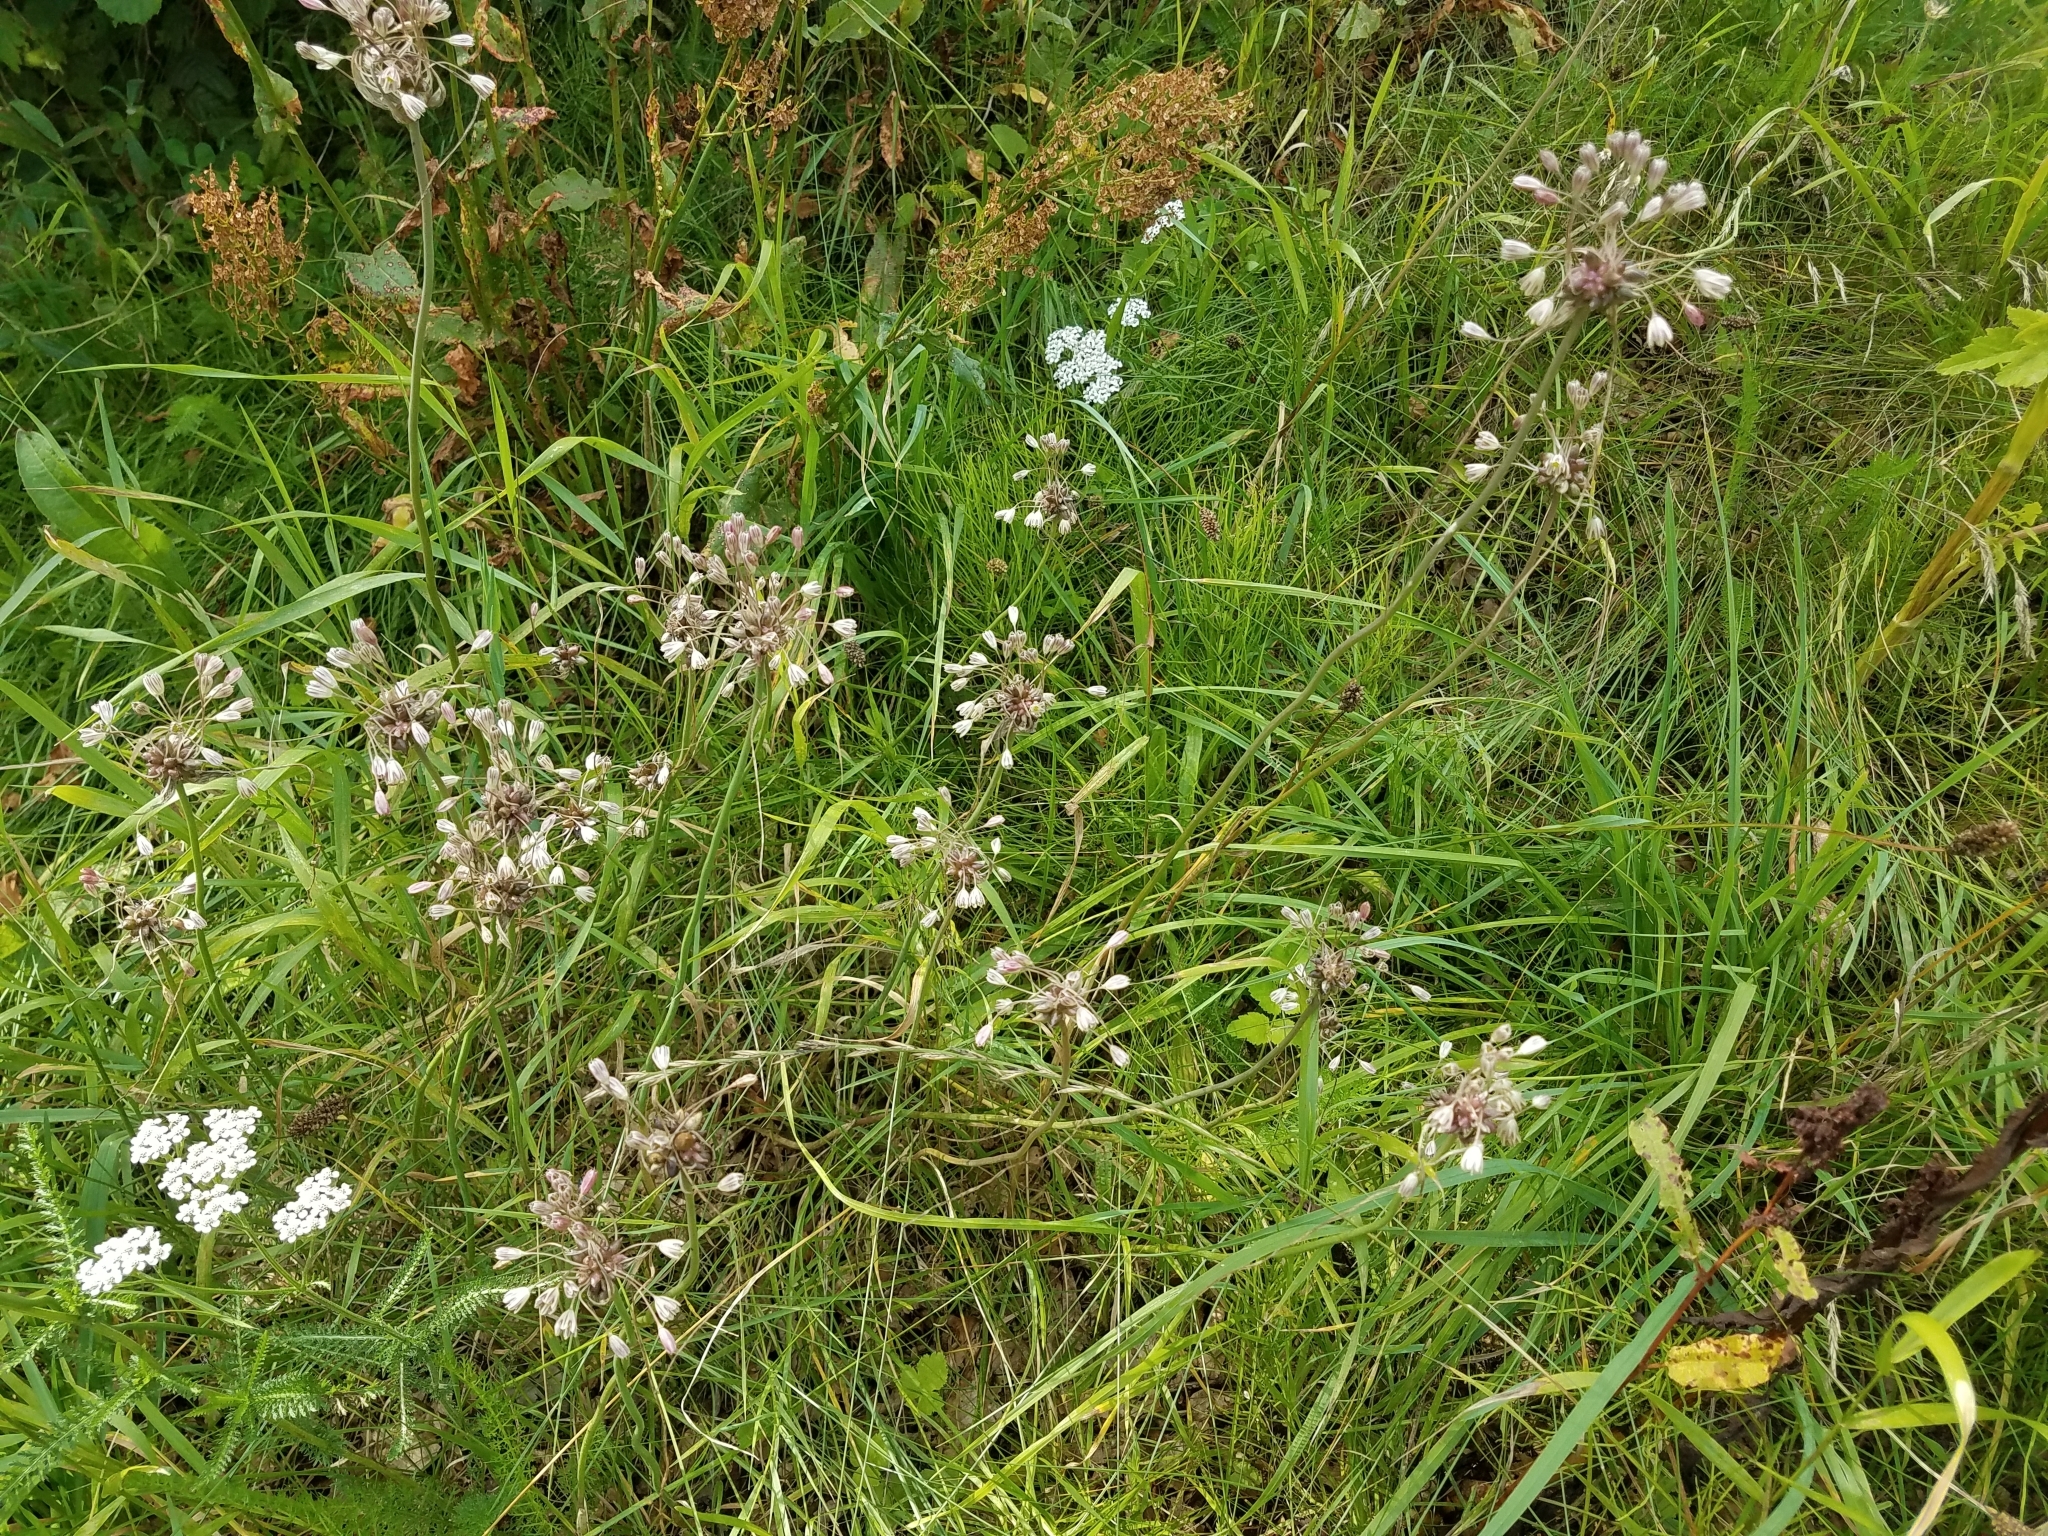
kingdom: Plantae
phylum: Tracheophyta
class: Liliopsida
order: Asparagales
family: Amaryllidaceae
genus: Allium
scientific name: Allium oleraceum
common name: Field garlic
